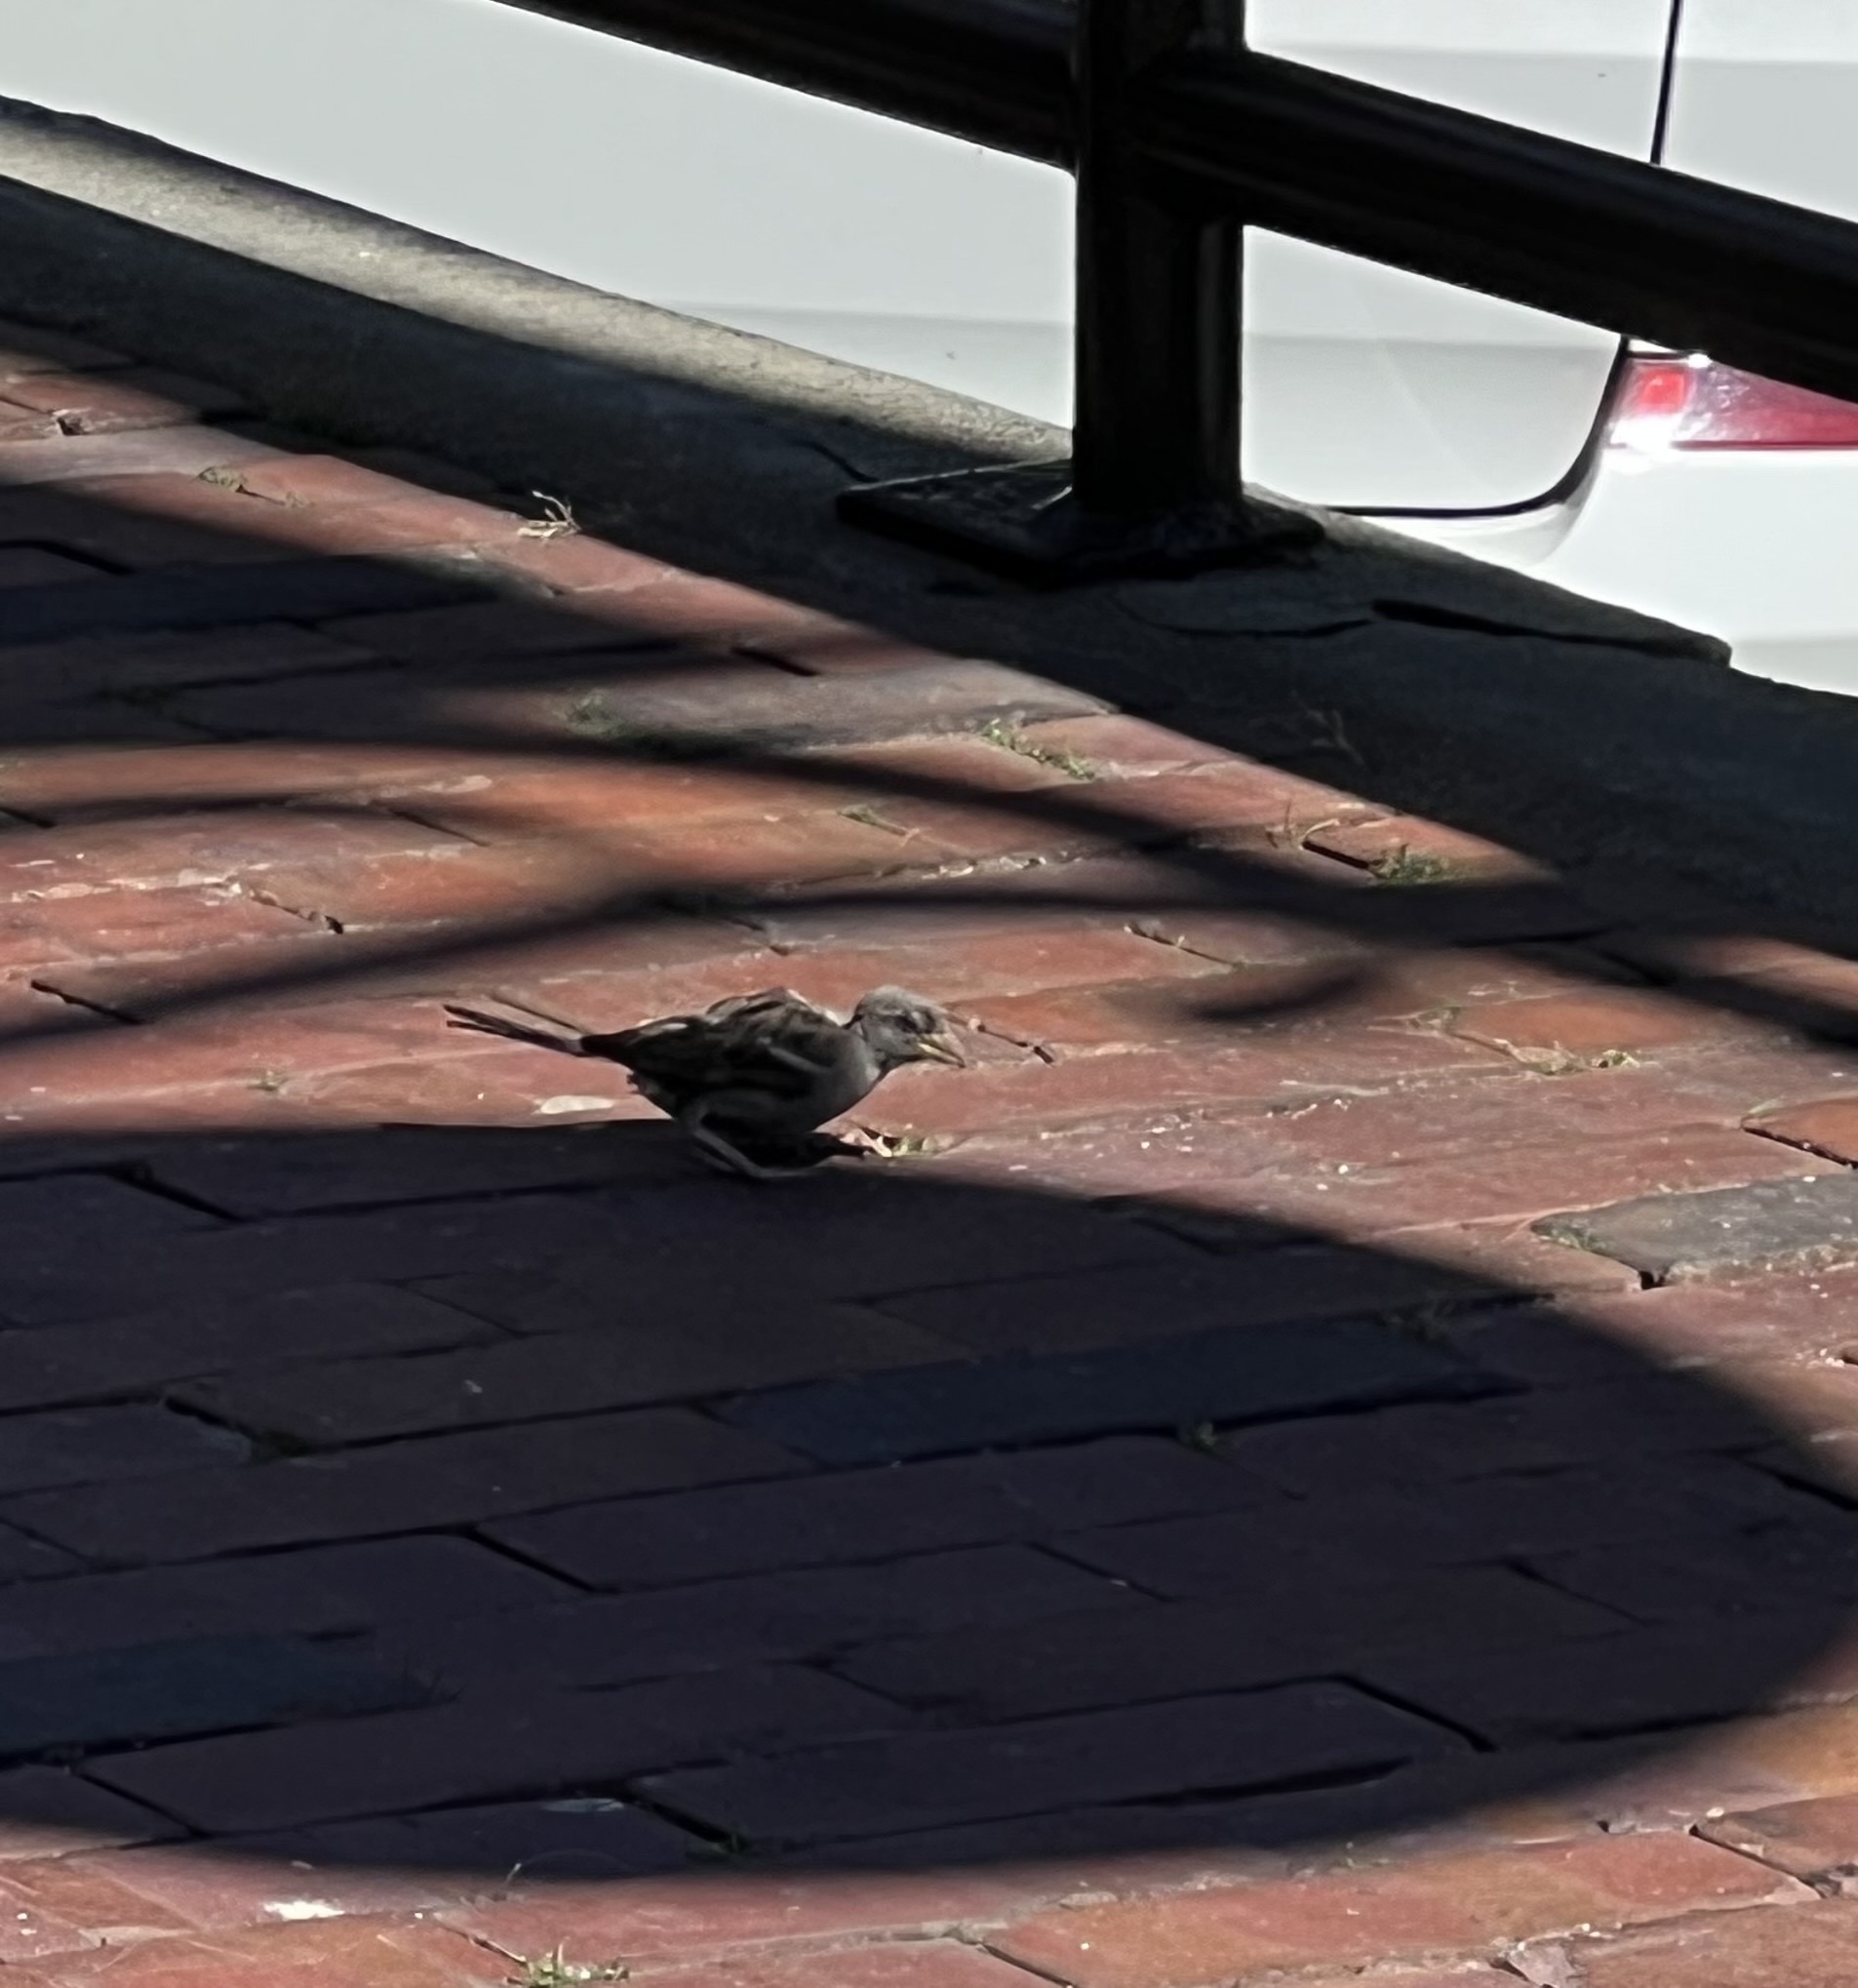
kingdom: Animalia
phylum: Chordata
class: Aves
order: Passeriformes
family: Passeridae
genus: Passer
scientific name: Passer domesticus
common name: House sparrow
